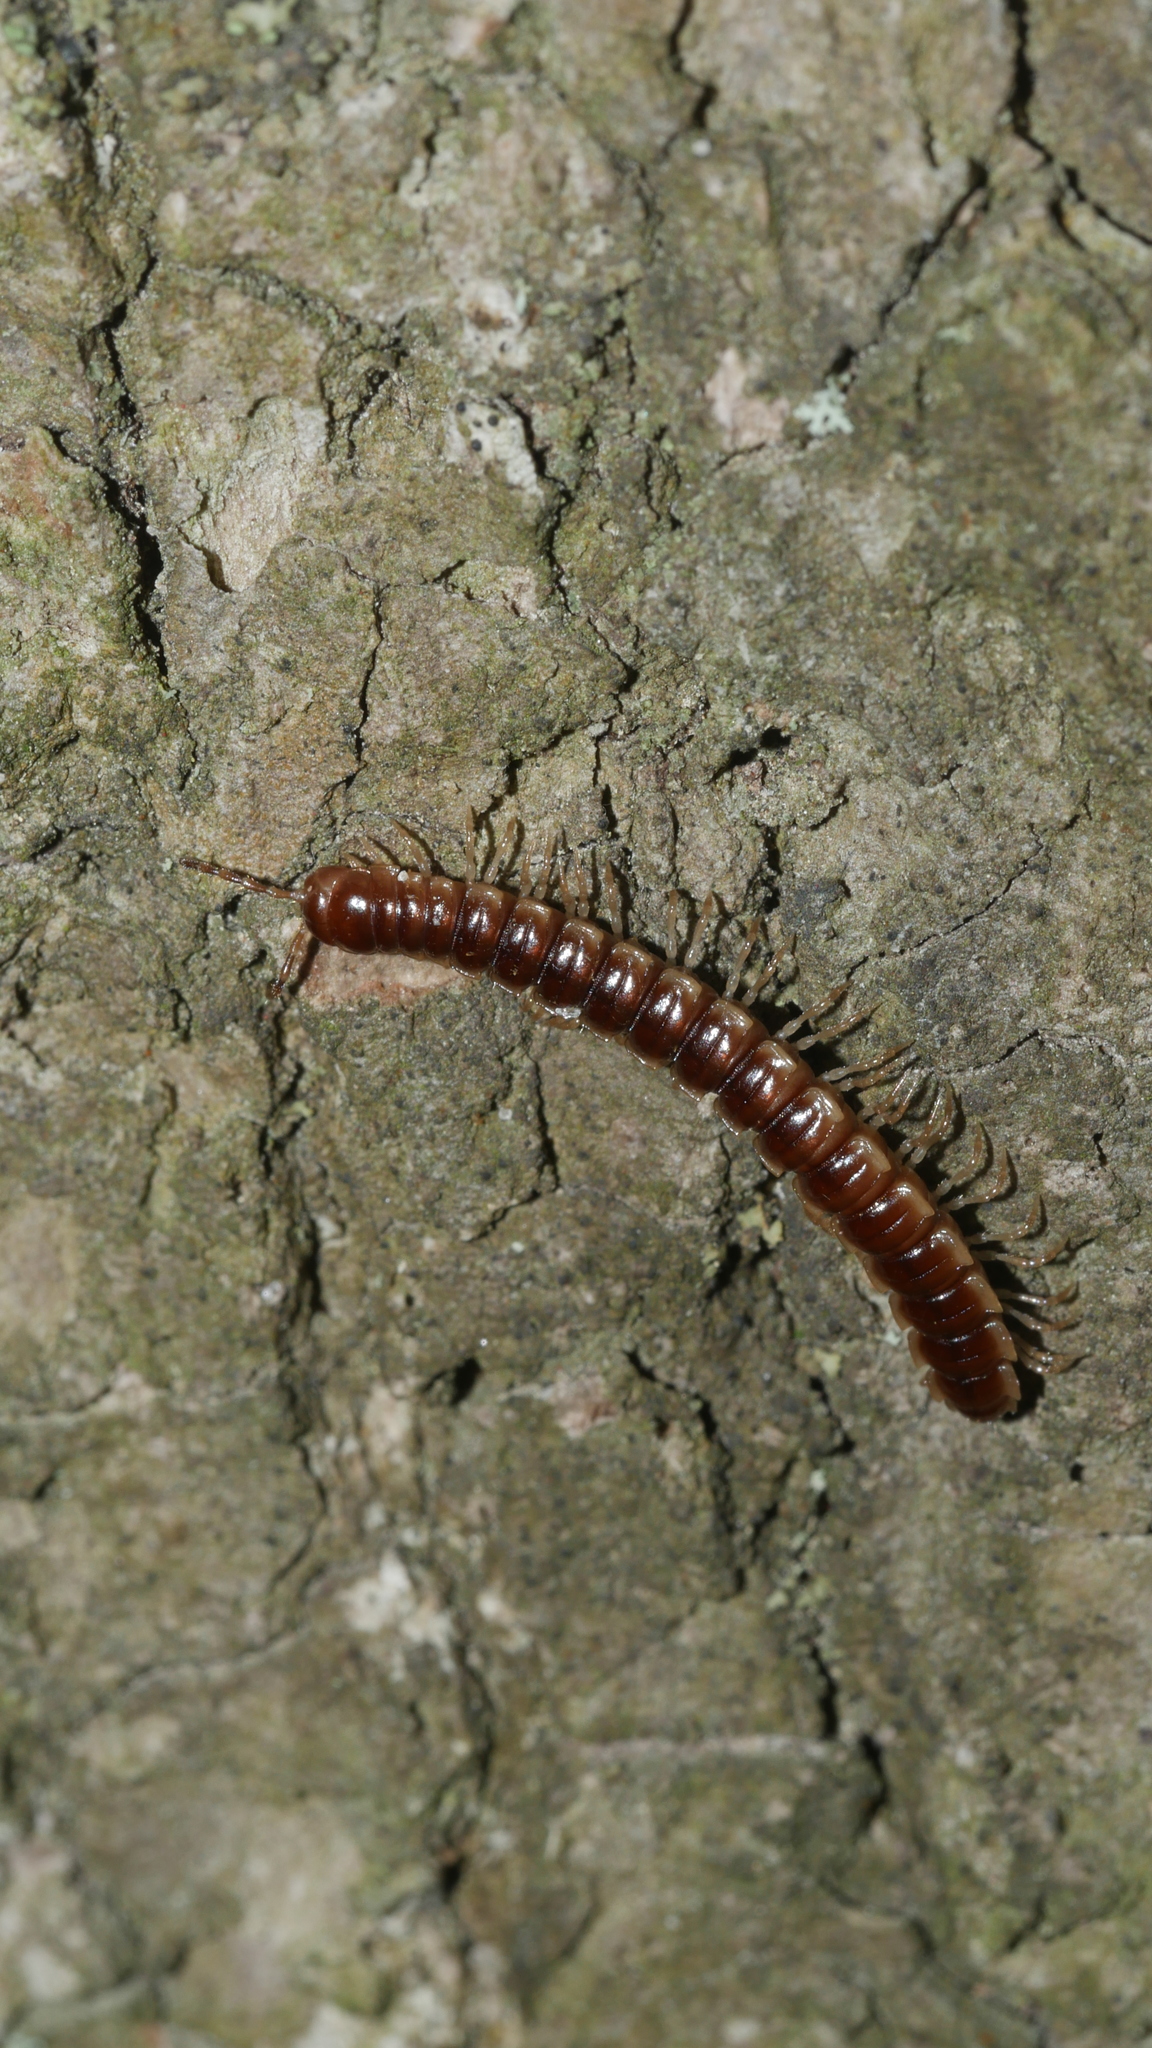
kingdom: Animalia
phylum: Arthropoda
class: Diplopoda
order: Polydesmida
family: Paradoxosomatidae
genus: Oxidus
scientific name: Oxidus gracilis
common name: Greenhouse millipede
